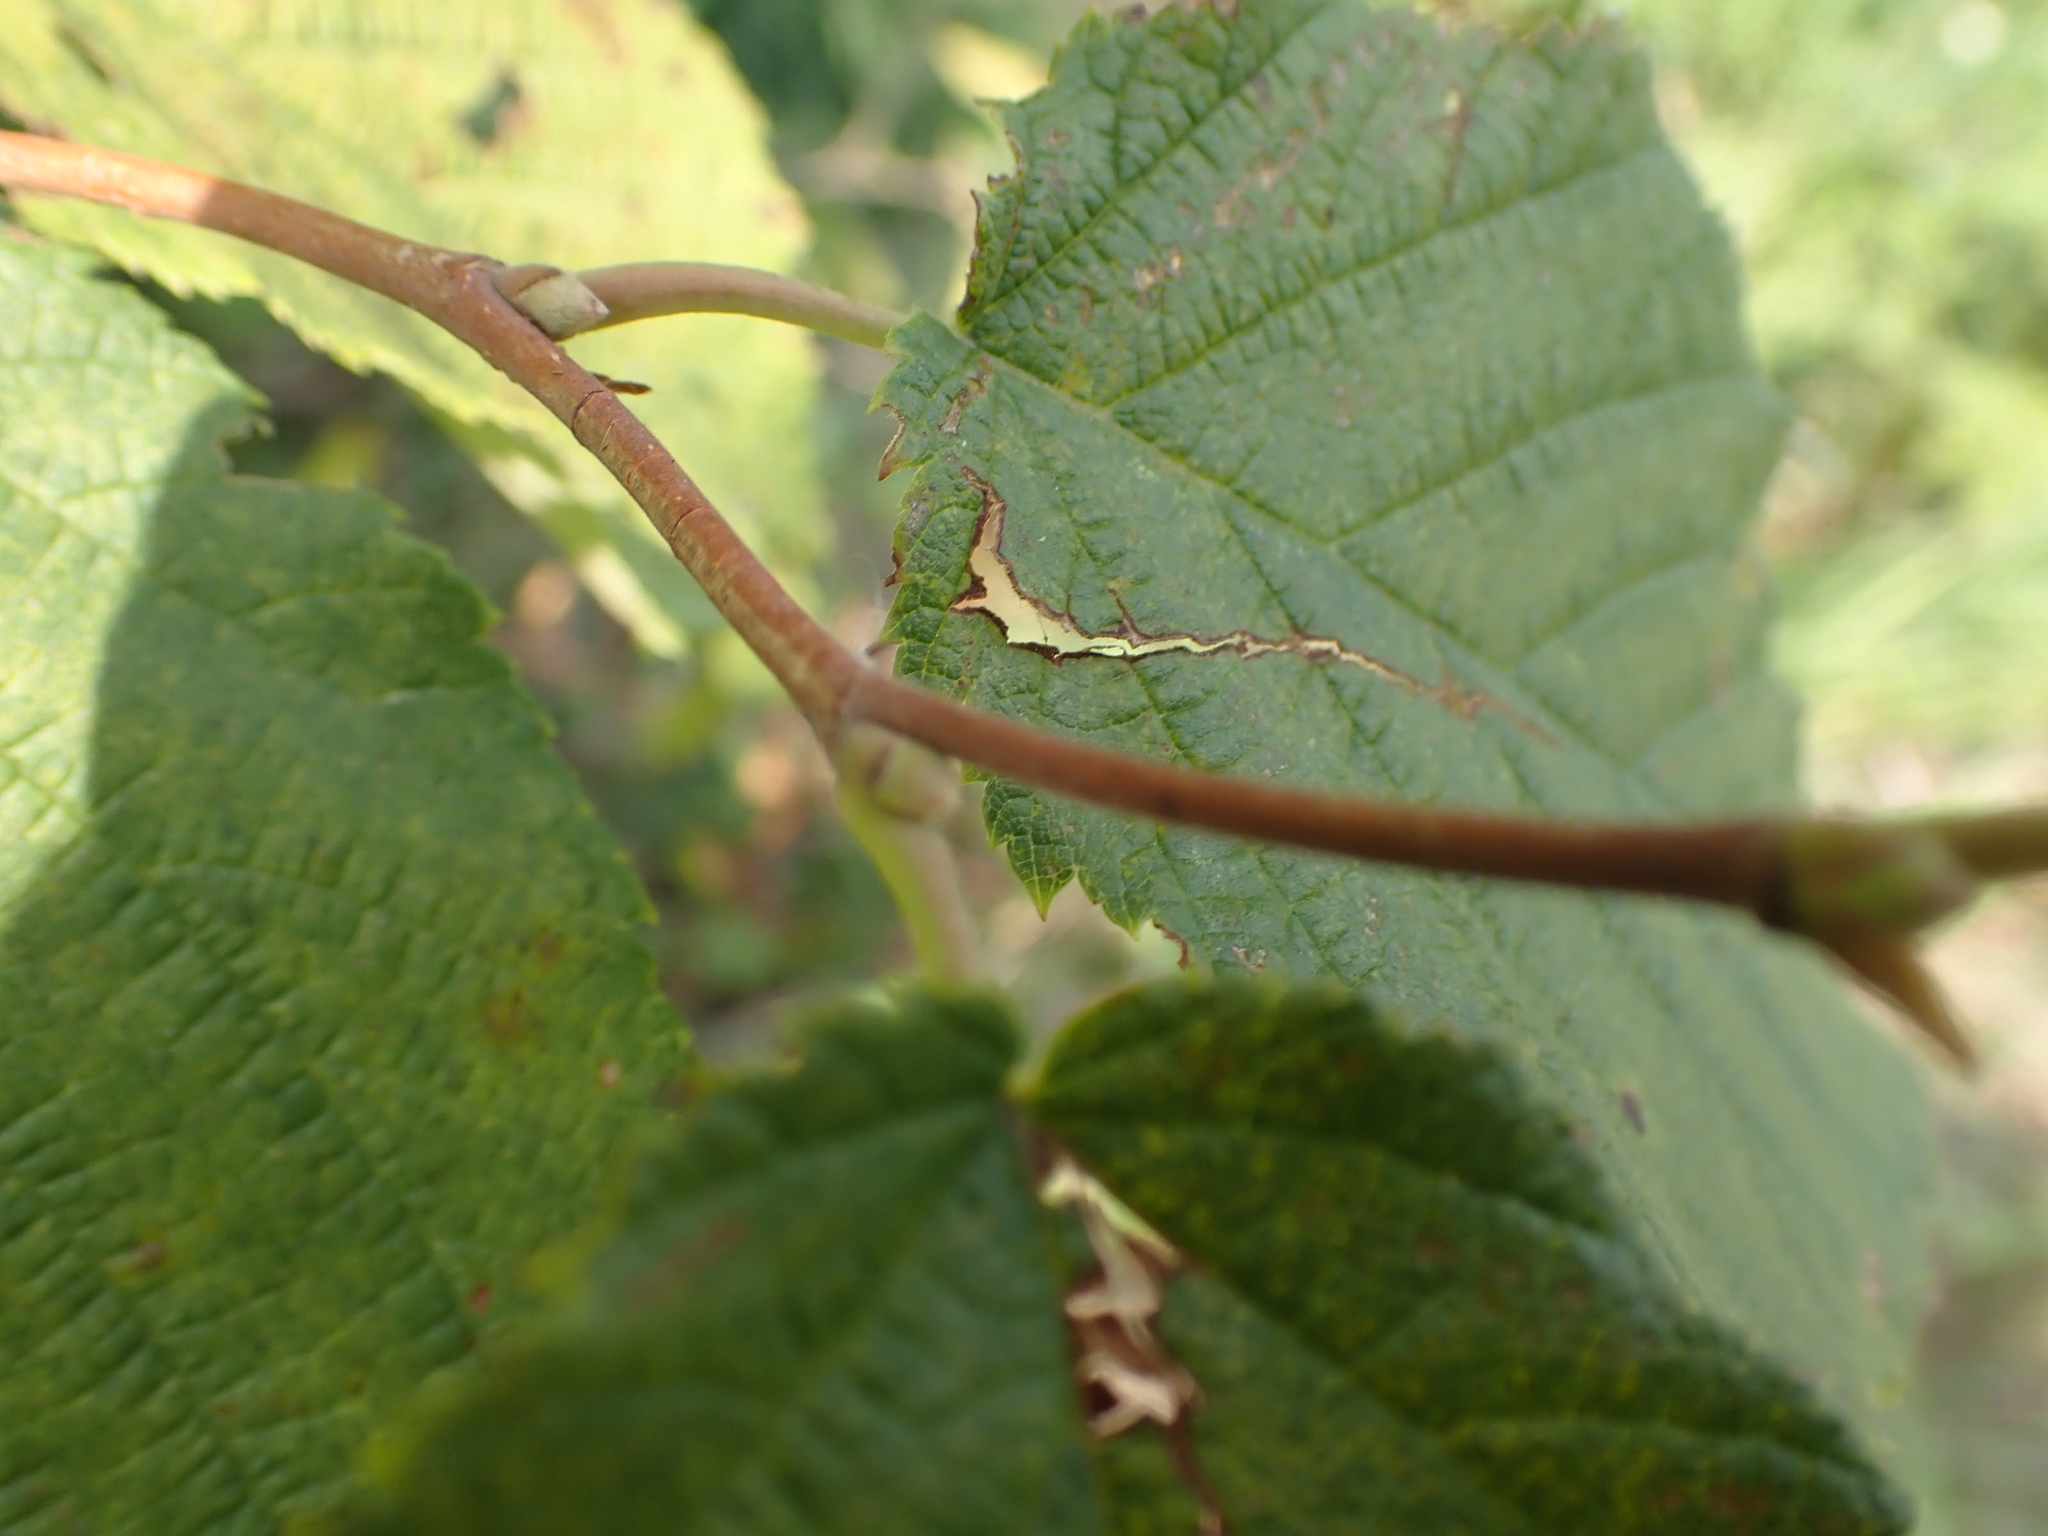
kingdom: Plantae
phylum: Tracheophyta
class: Magnoliopsida
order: Fagales
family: Betulaceae
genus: Corylus
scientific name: Corylus cornuta
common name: Beaked hazel
